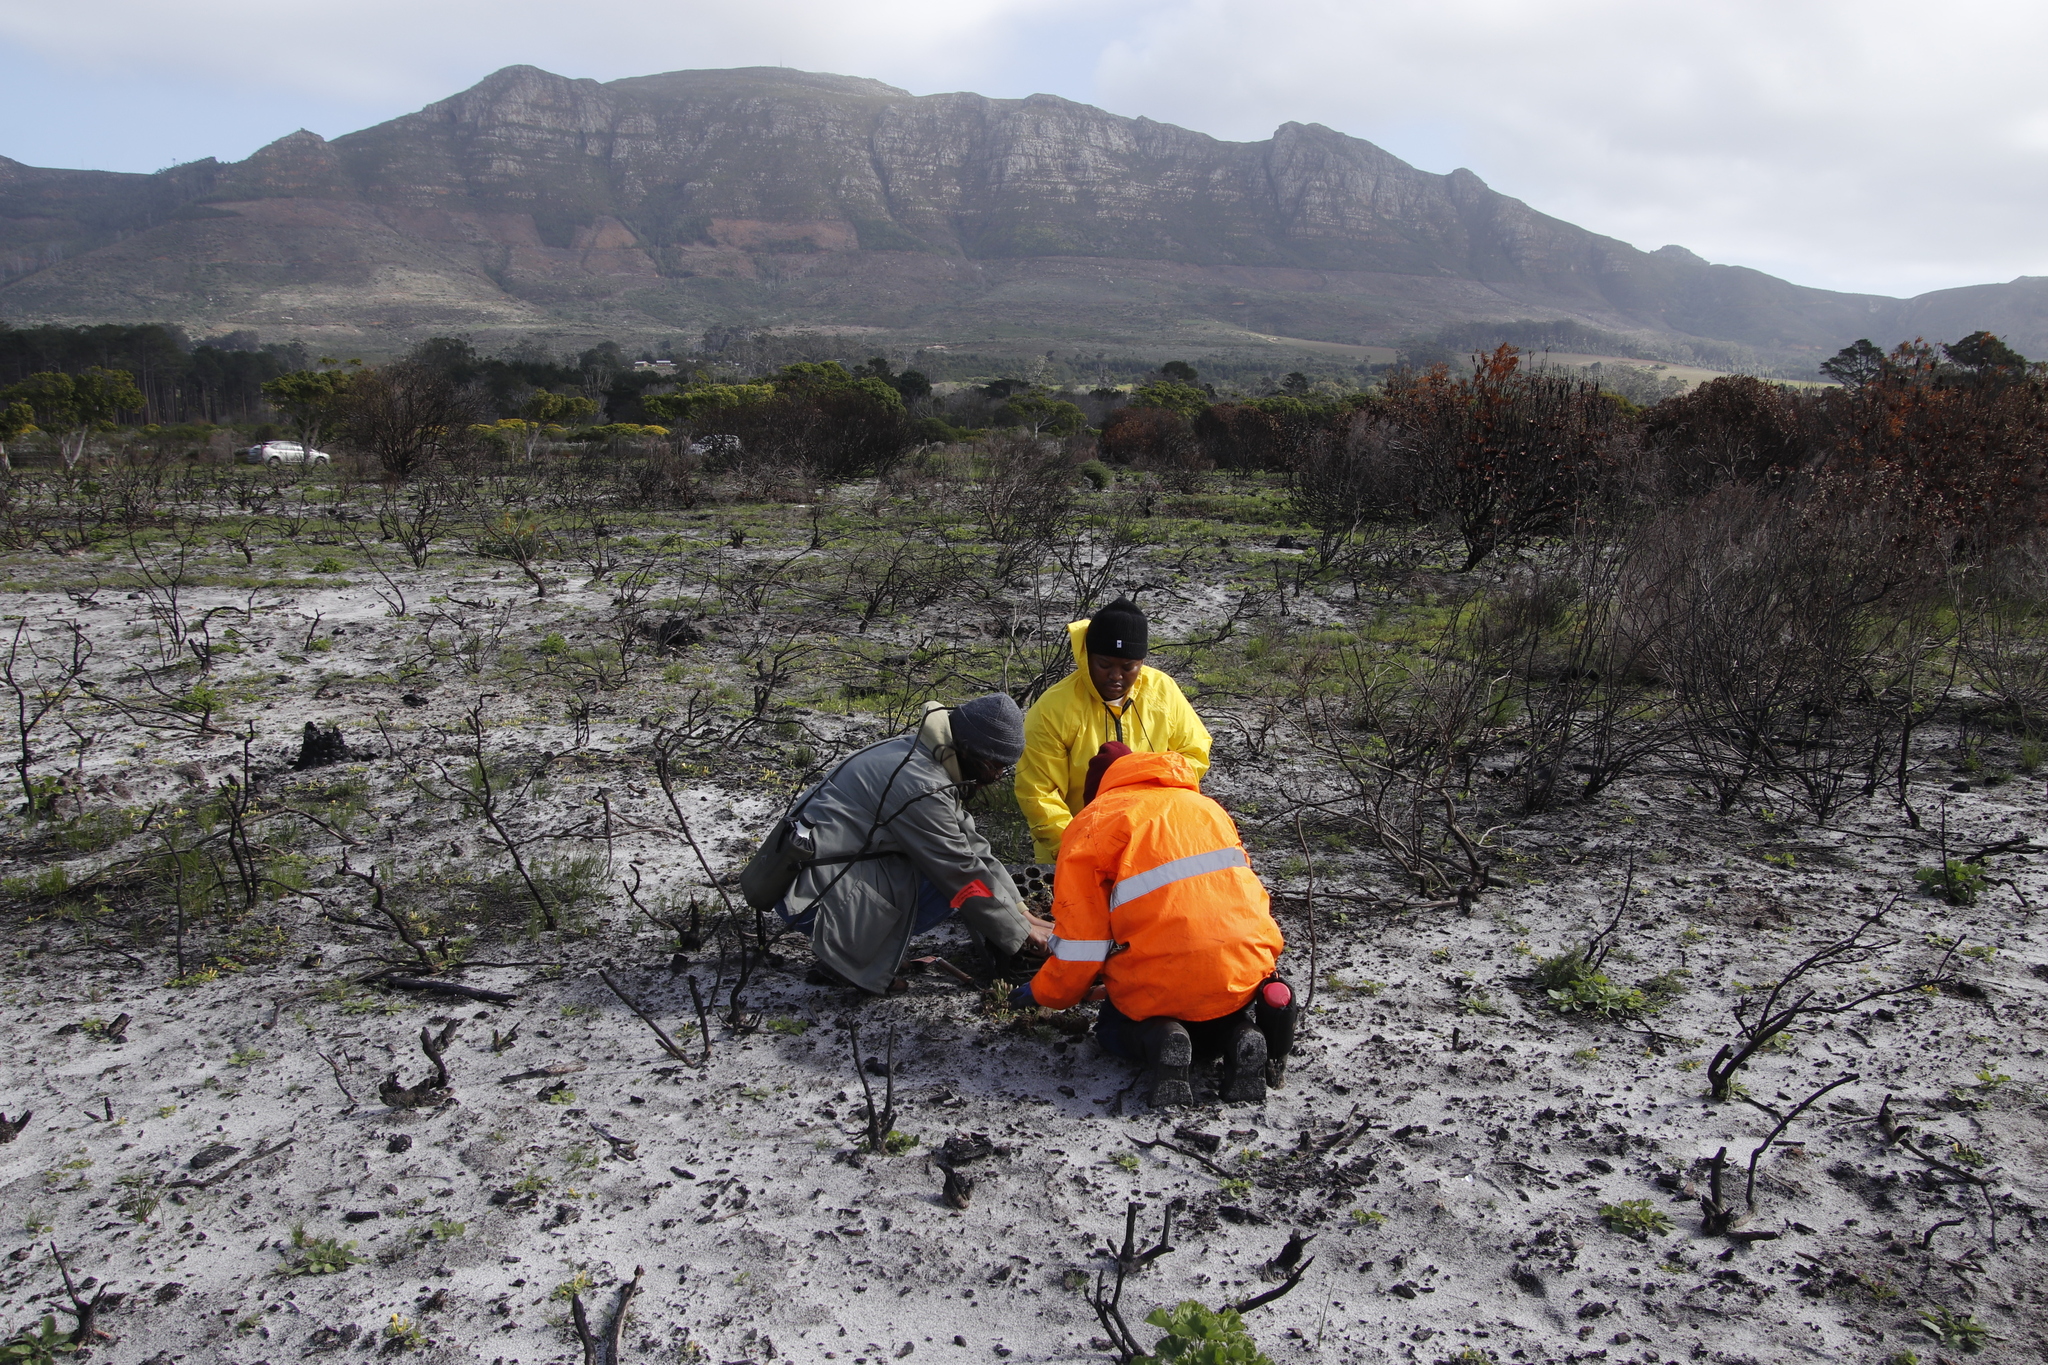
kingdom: Plantae
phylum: Tracheophyta
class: Magnoliopsida
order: Oxalidales
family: Oxalidaceae
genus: Oxalis
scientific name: Oxalis luteola
